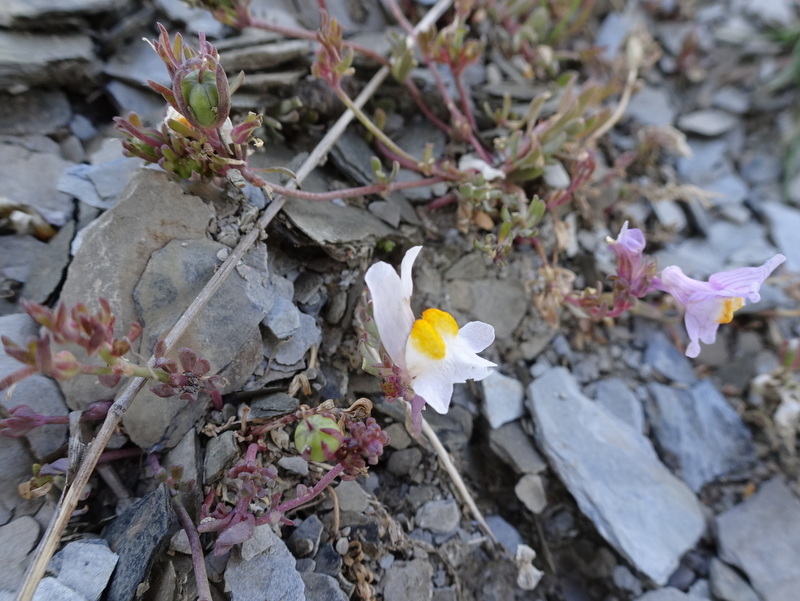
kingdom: Plantae
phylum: Tracheophyta
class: Magnoliopsida
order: Lamiales
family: Plantaginaceae
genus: Linaria
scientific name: Linaria alpina
